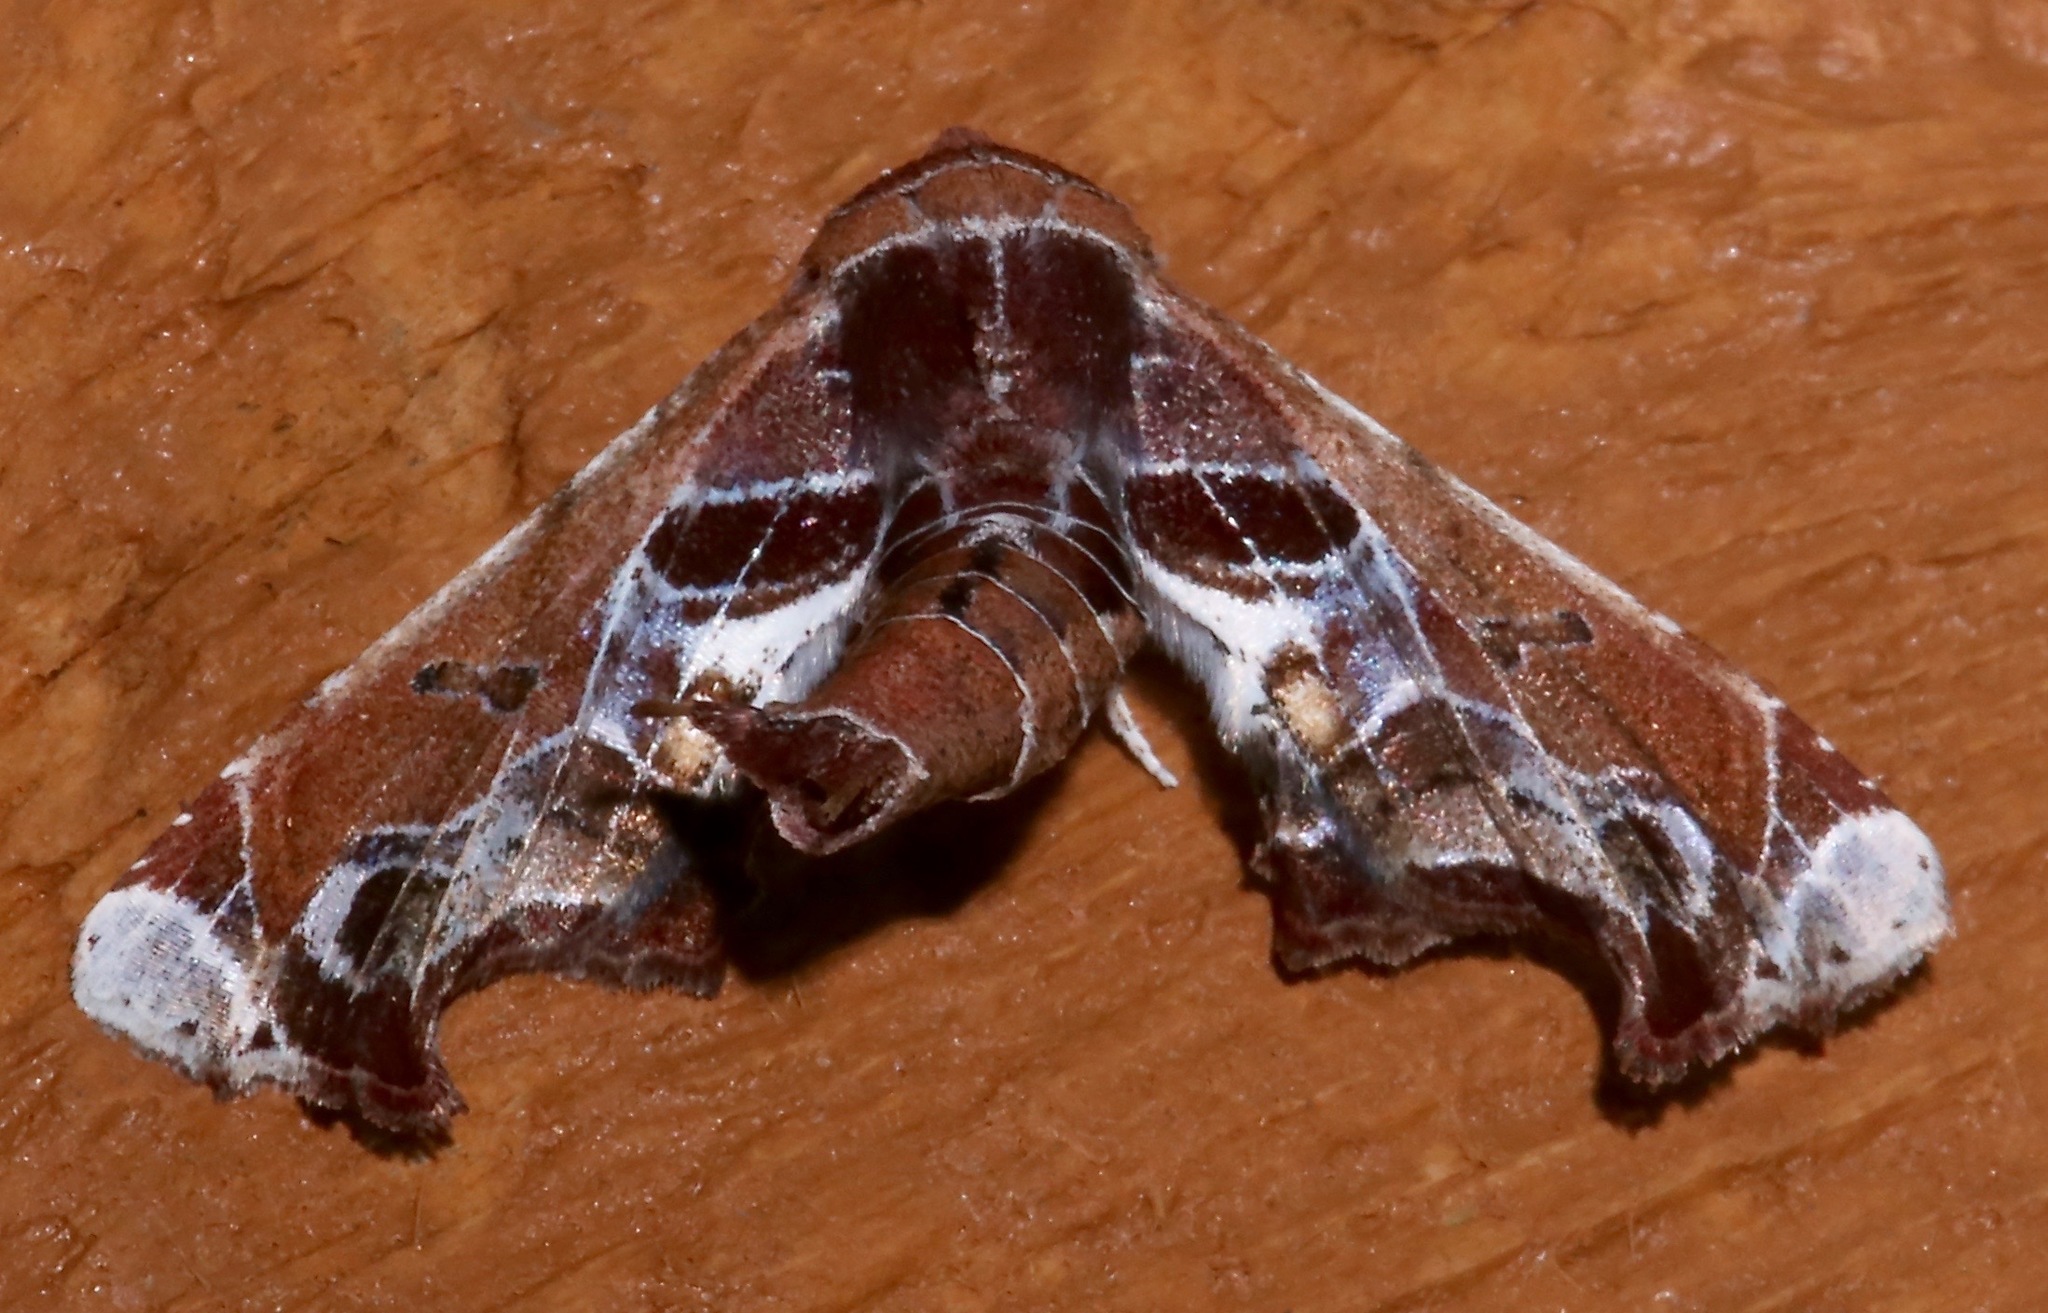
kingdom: Animalia
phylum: Arthropoda
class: Insecta
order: Lepidoptera
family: Euteliidae
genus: Eutelia
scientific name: Eutelia pulcherrimus
